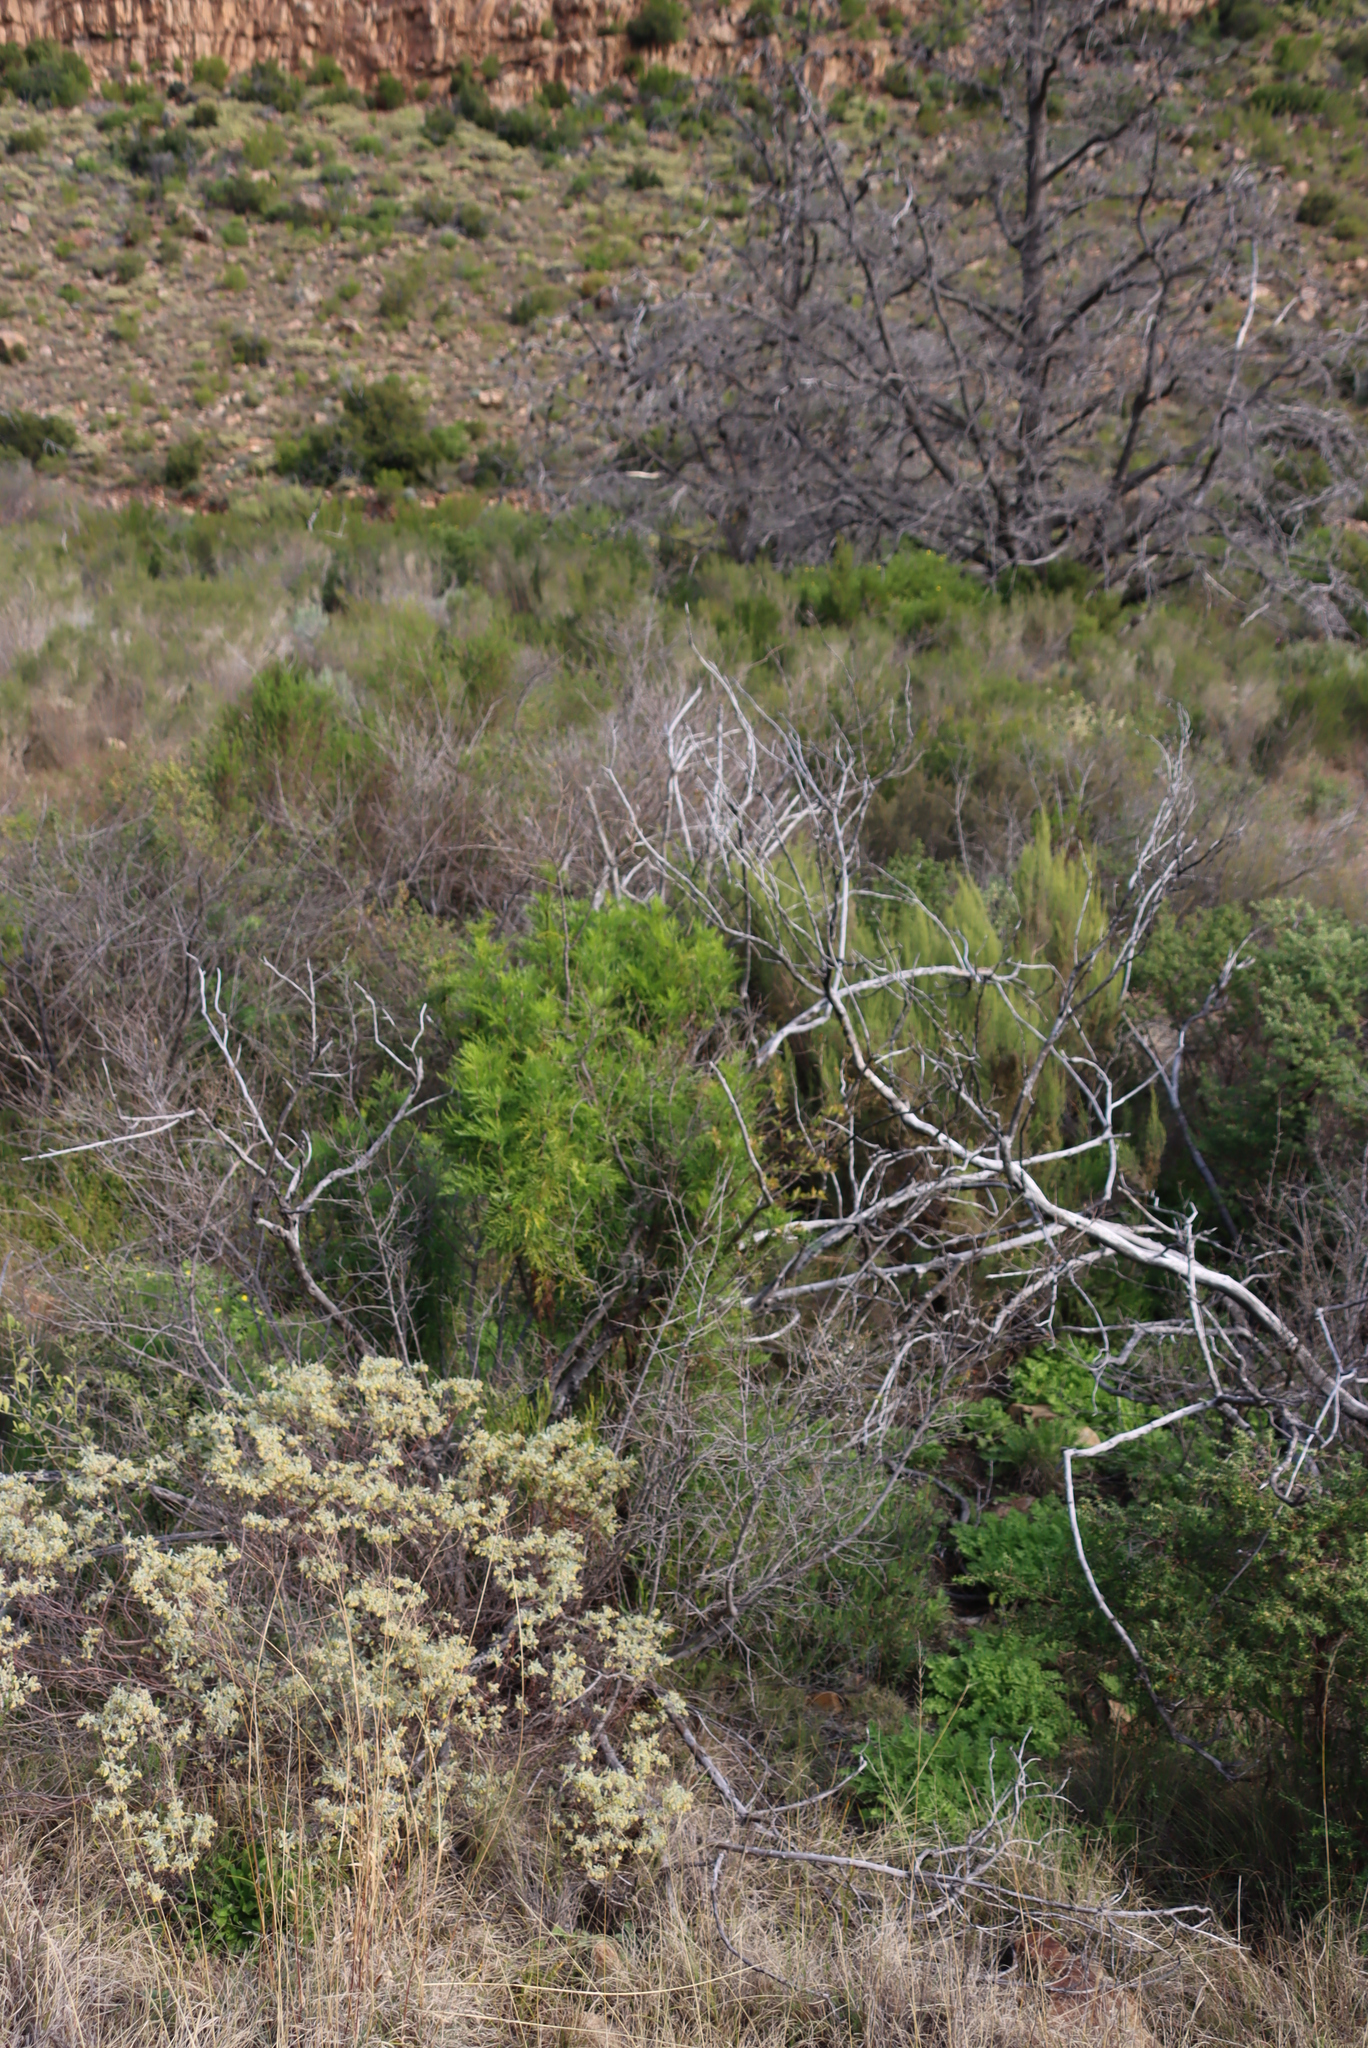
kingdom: Plantae
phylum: Tracheophyta
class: Magnoliopsida
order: Apiales
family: Apiaceae
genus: Notobubon
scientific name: Notobubon tenuifolium
